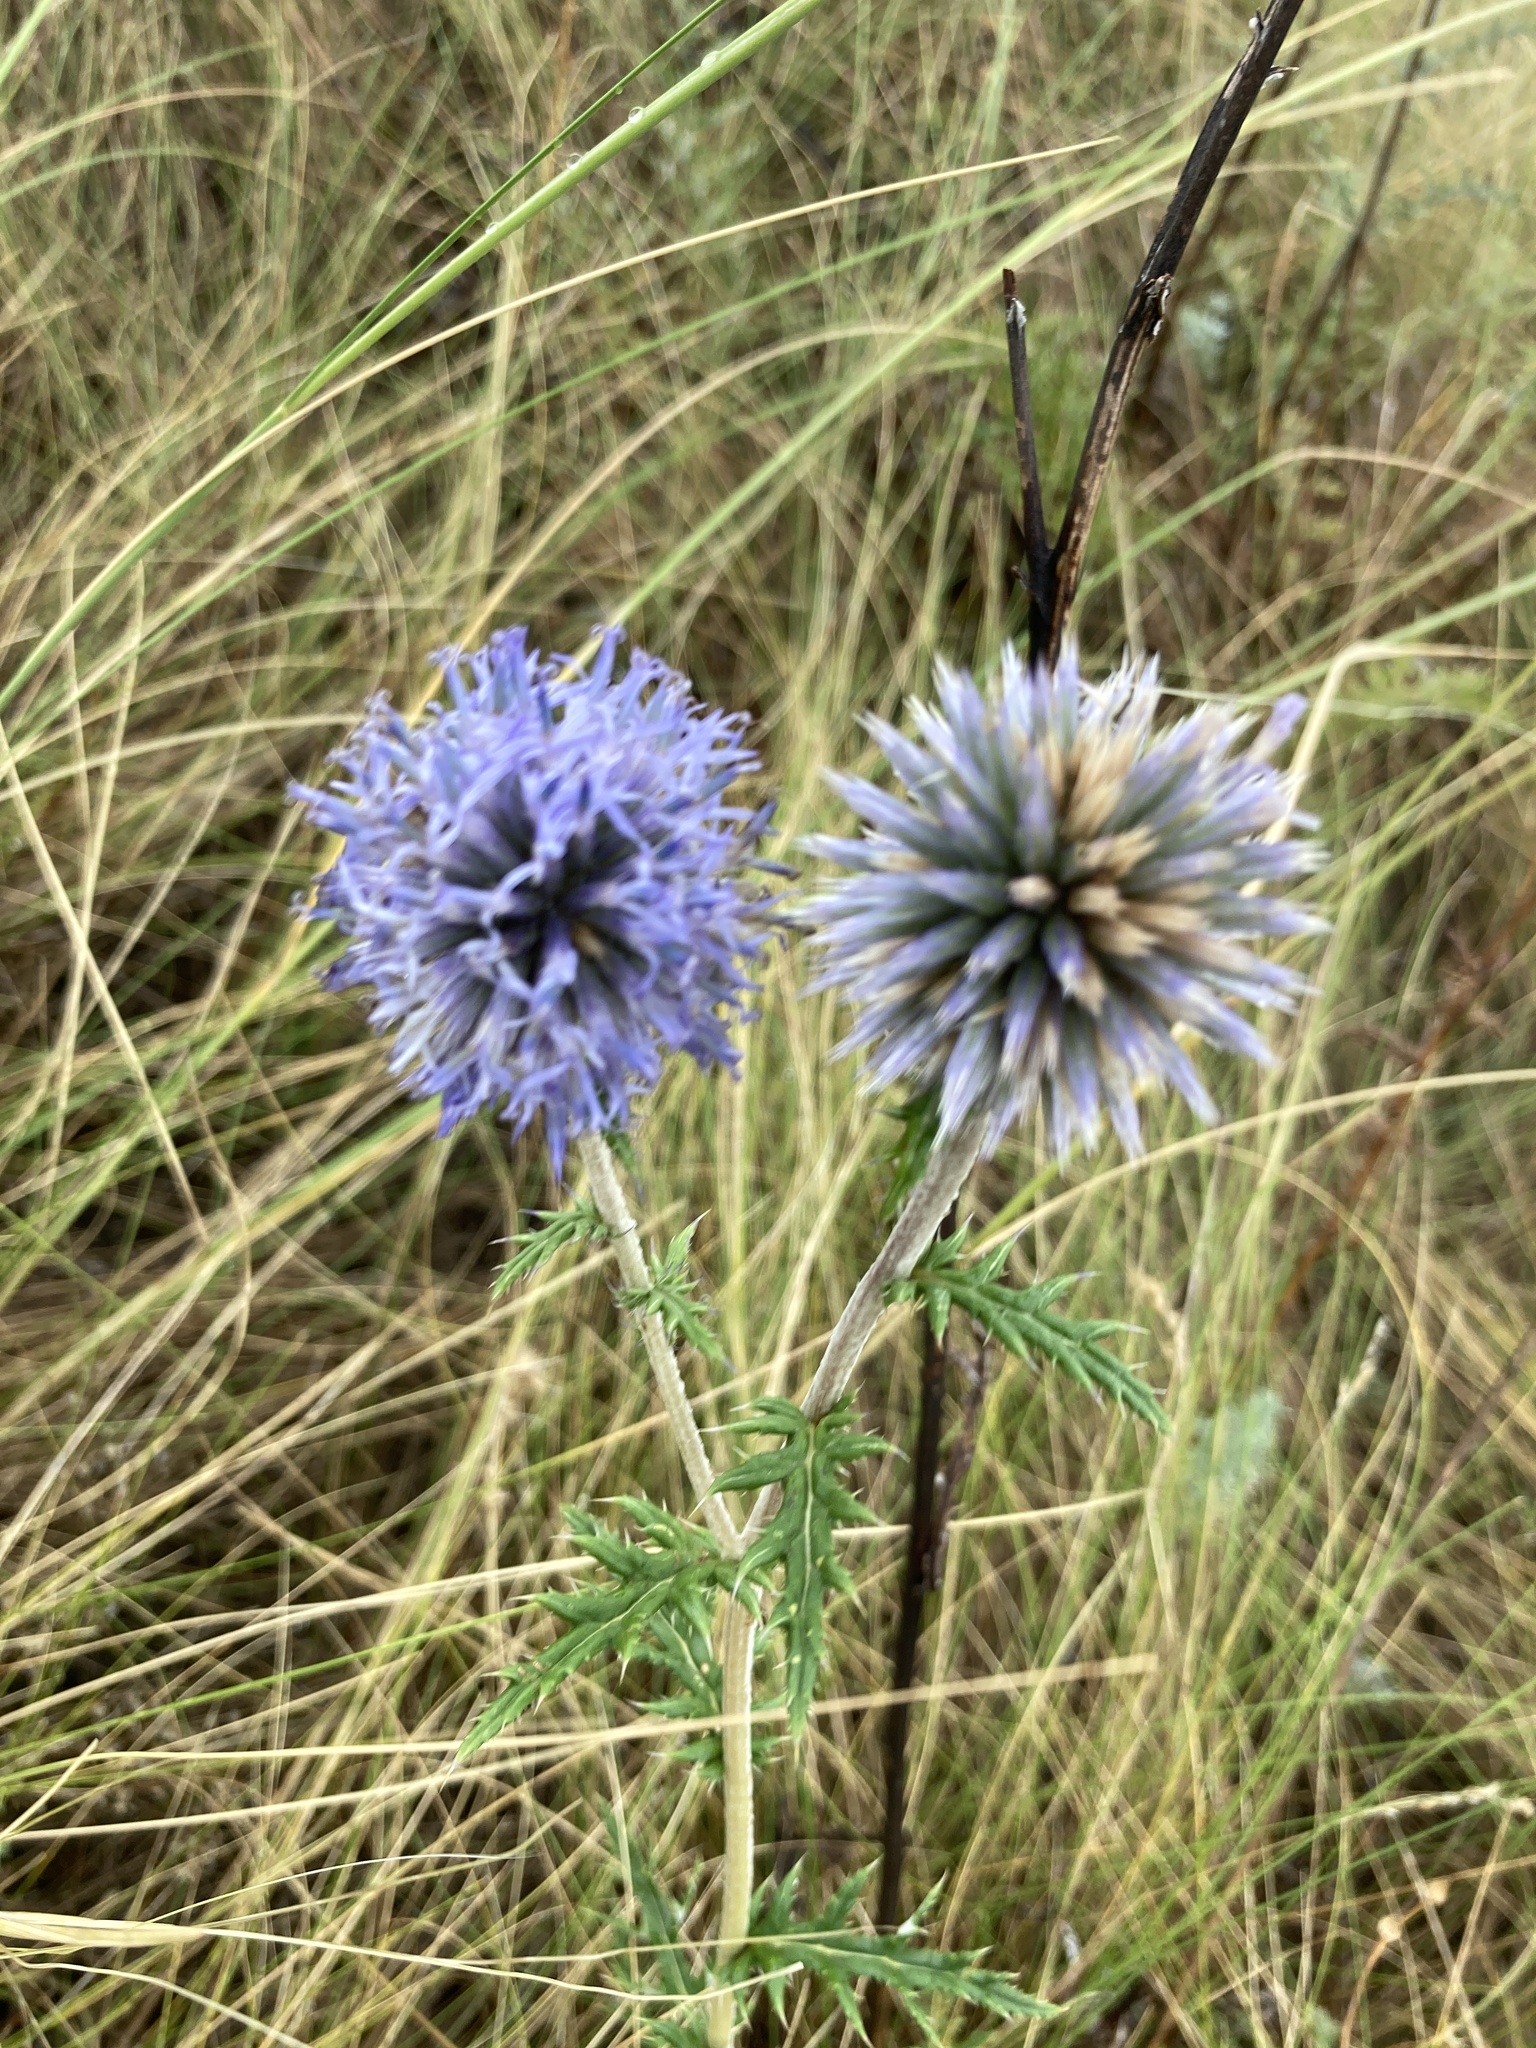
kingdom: Plantae
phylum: Tracheophyta
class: Magnoliopsida
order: Asterales
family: Asteraceae
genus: Echinops
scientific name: Echinops ritro
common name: Globe thistle
